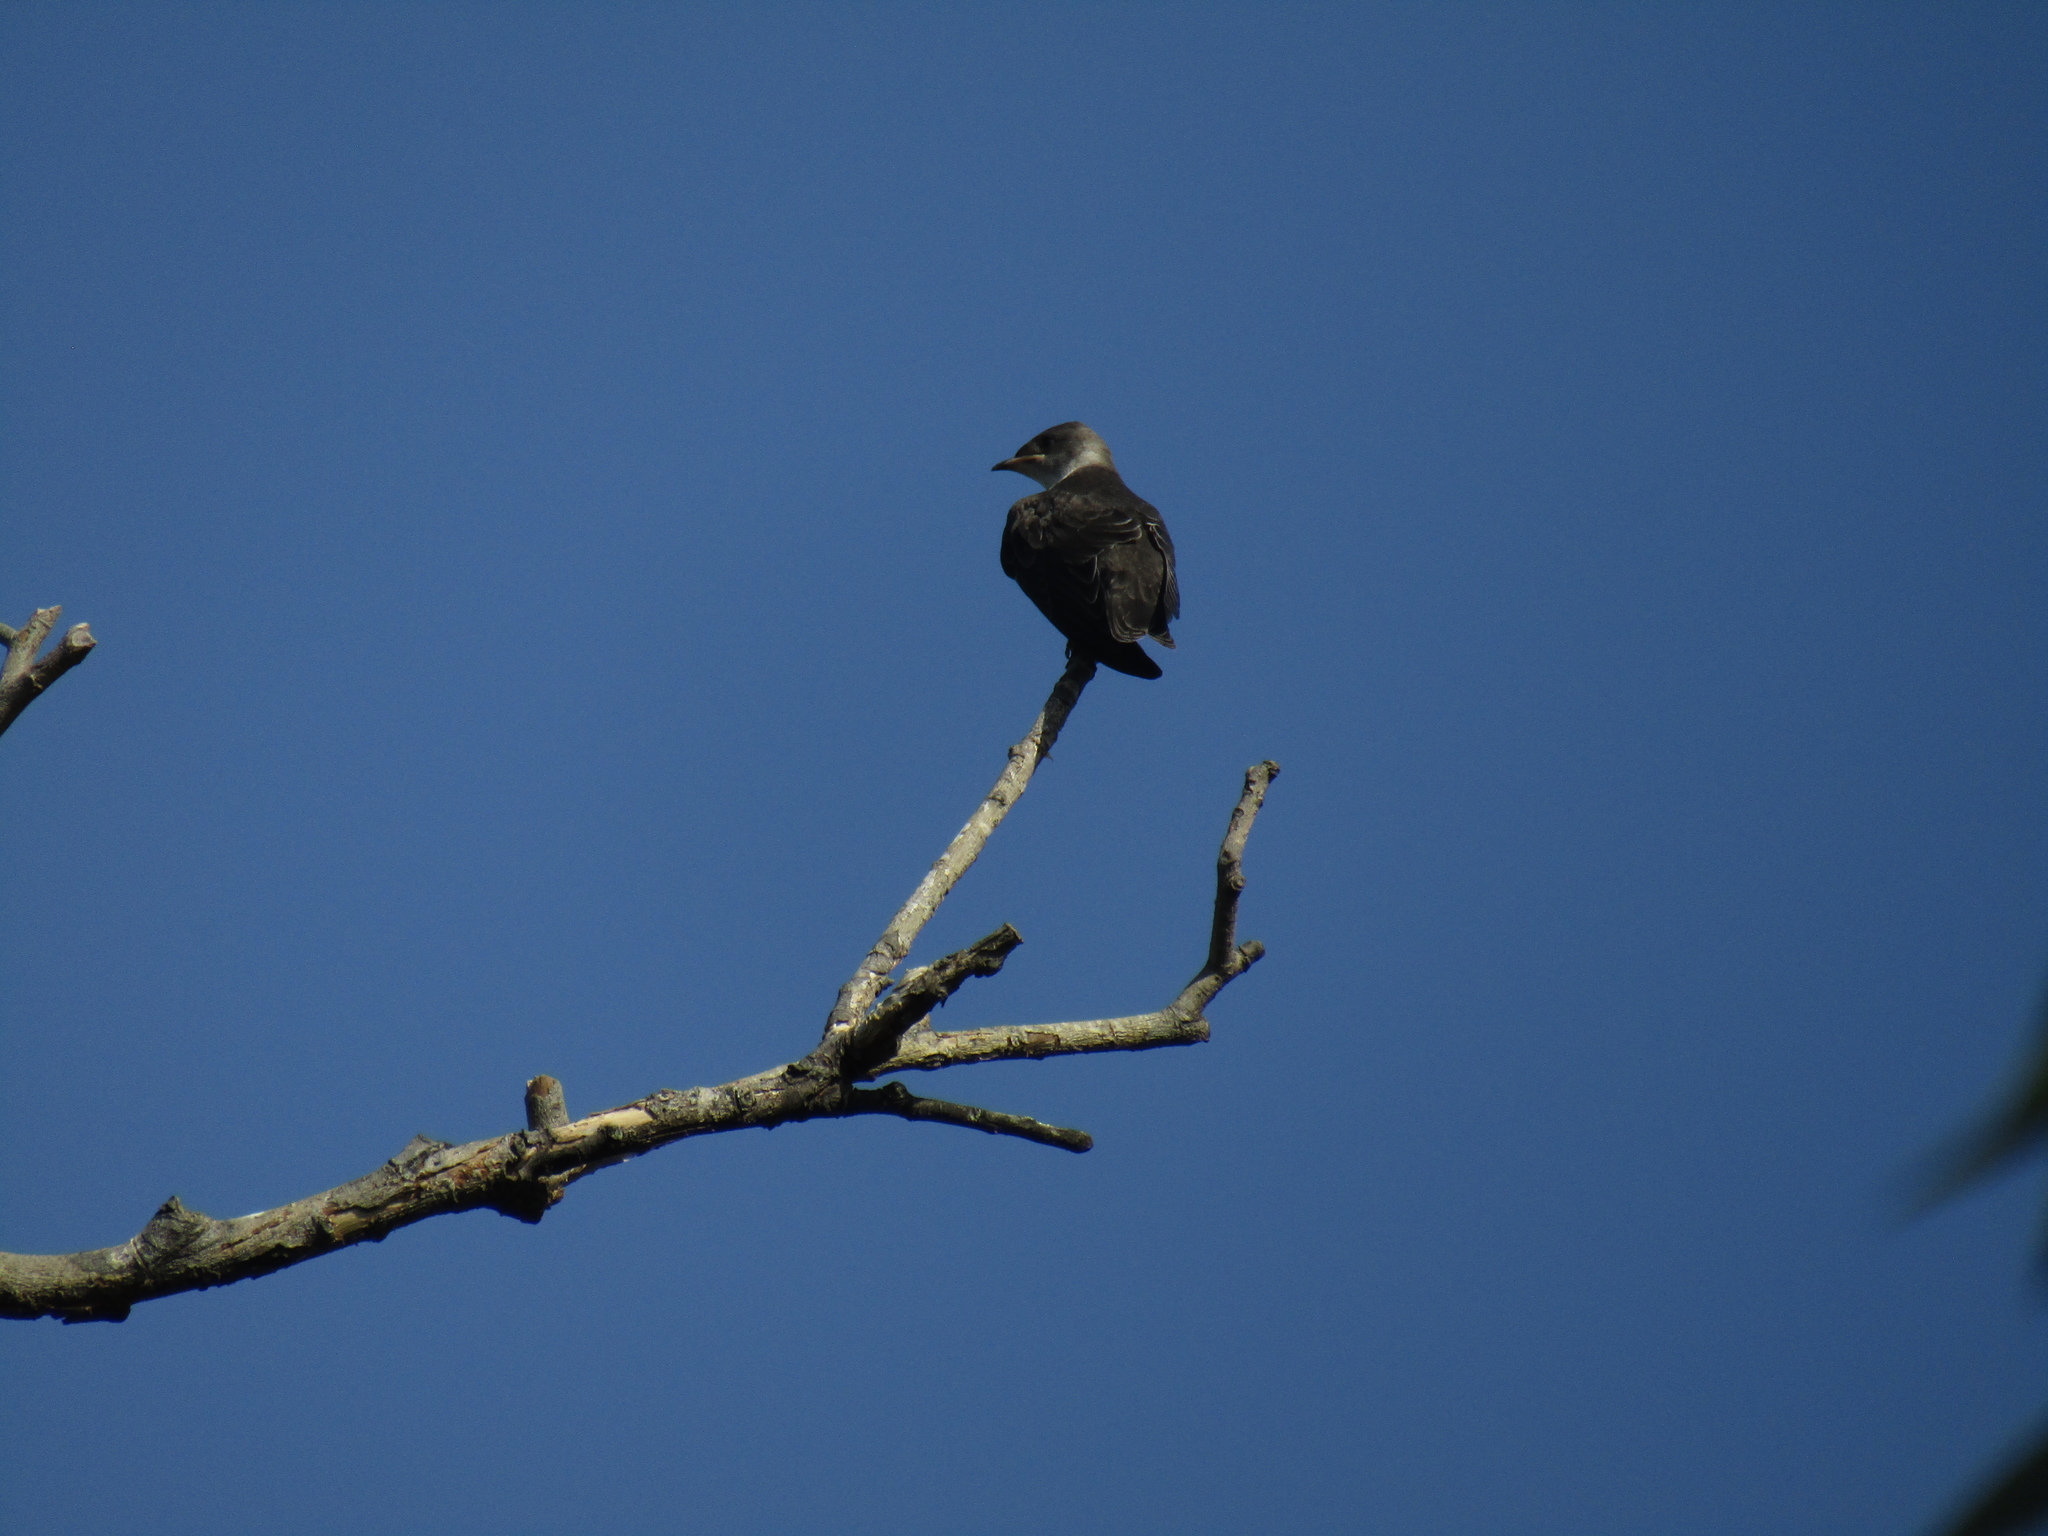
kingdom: Animalia
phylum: Chordata
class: Aves
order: Passeriformes
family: Hirundinidae
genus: Progne
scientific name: Progne tapera
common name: Brown-chested martin
